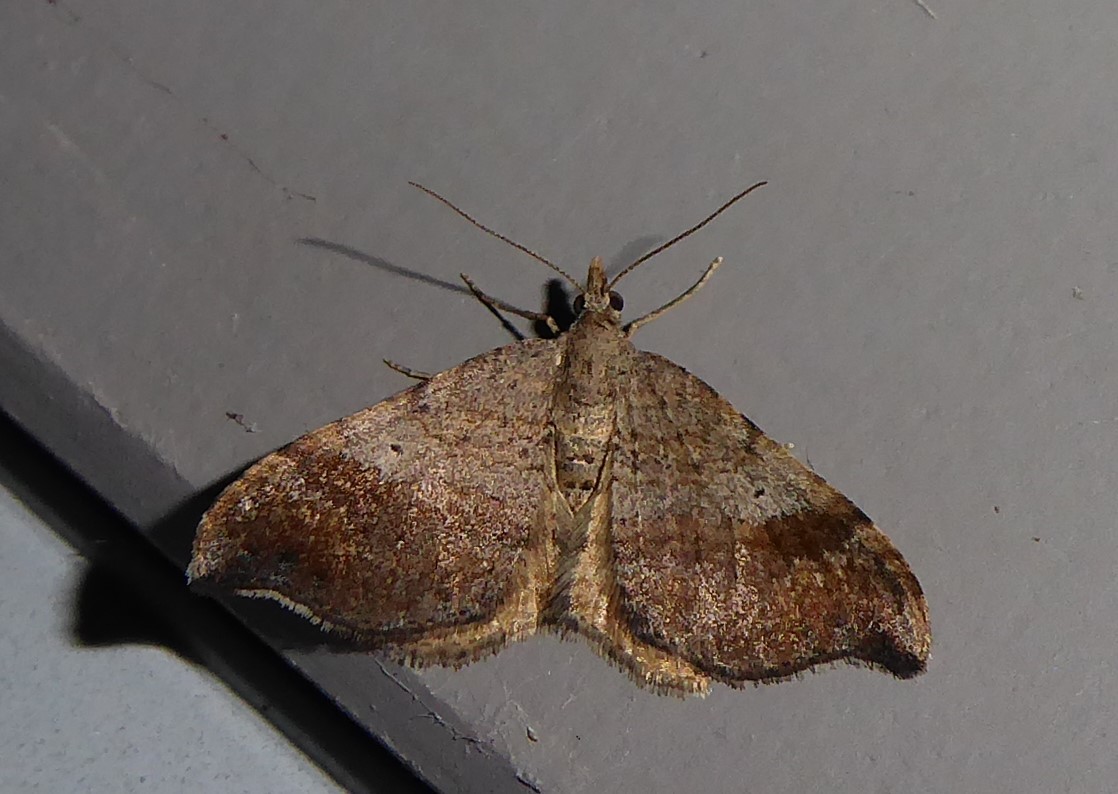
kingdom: Animalia
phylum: Arthropoda
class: Insecta
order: Lepidoptera
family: Geometridae
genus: Homodotis
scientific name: Homodotis megaspilata
